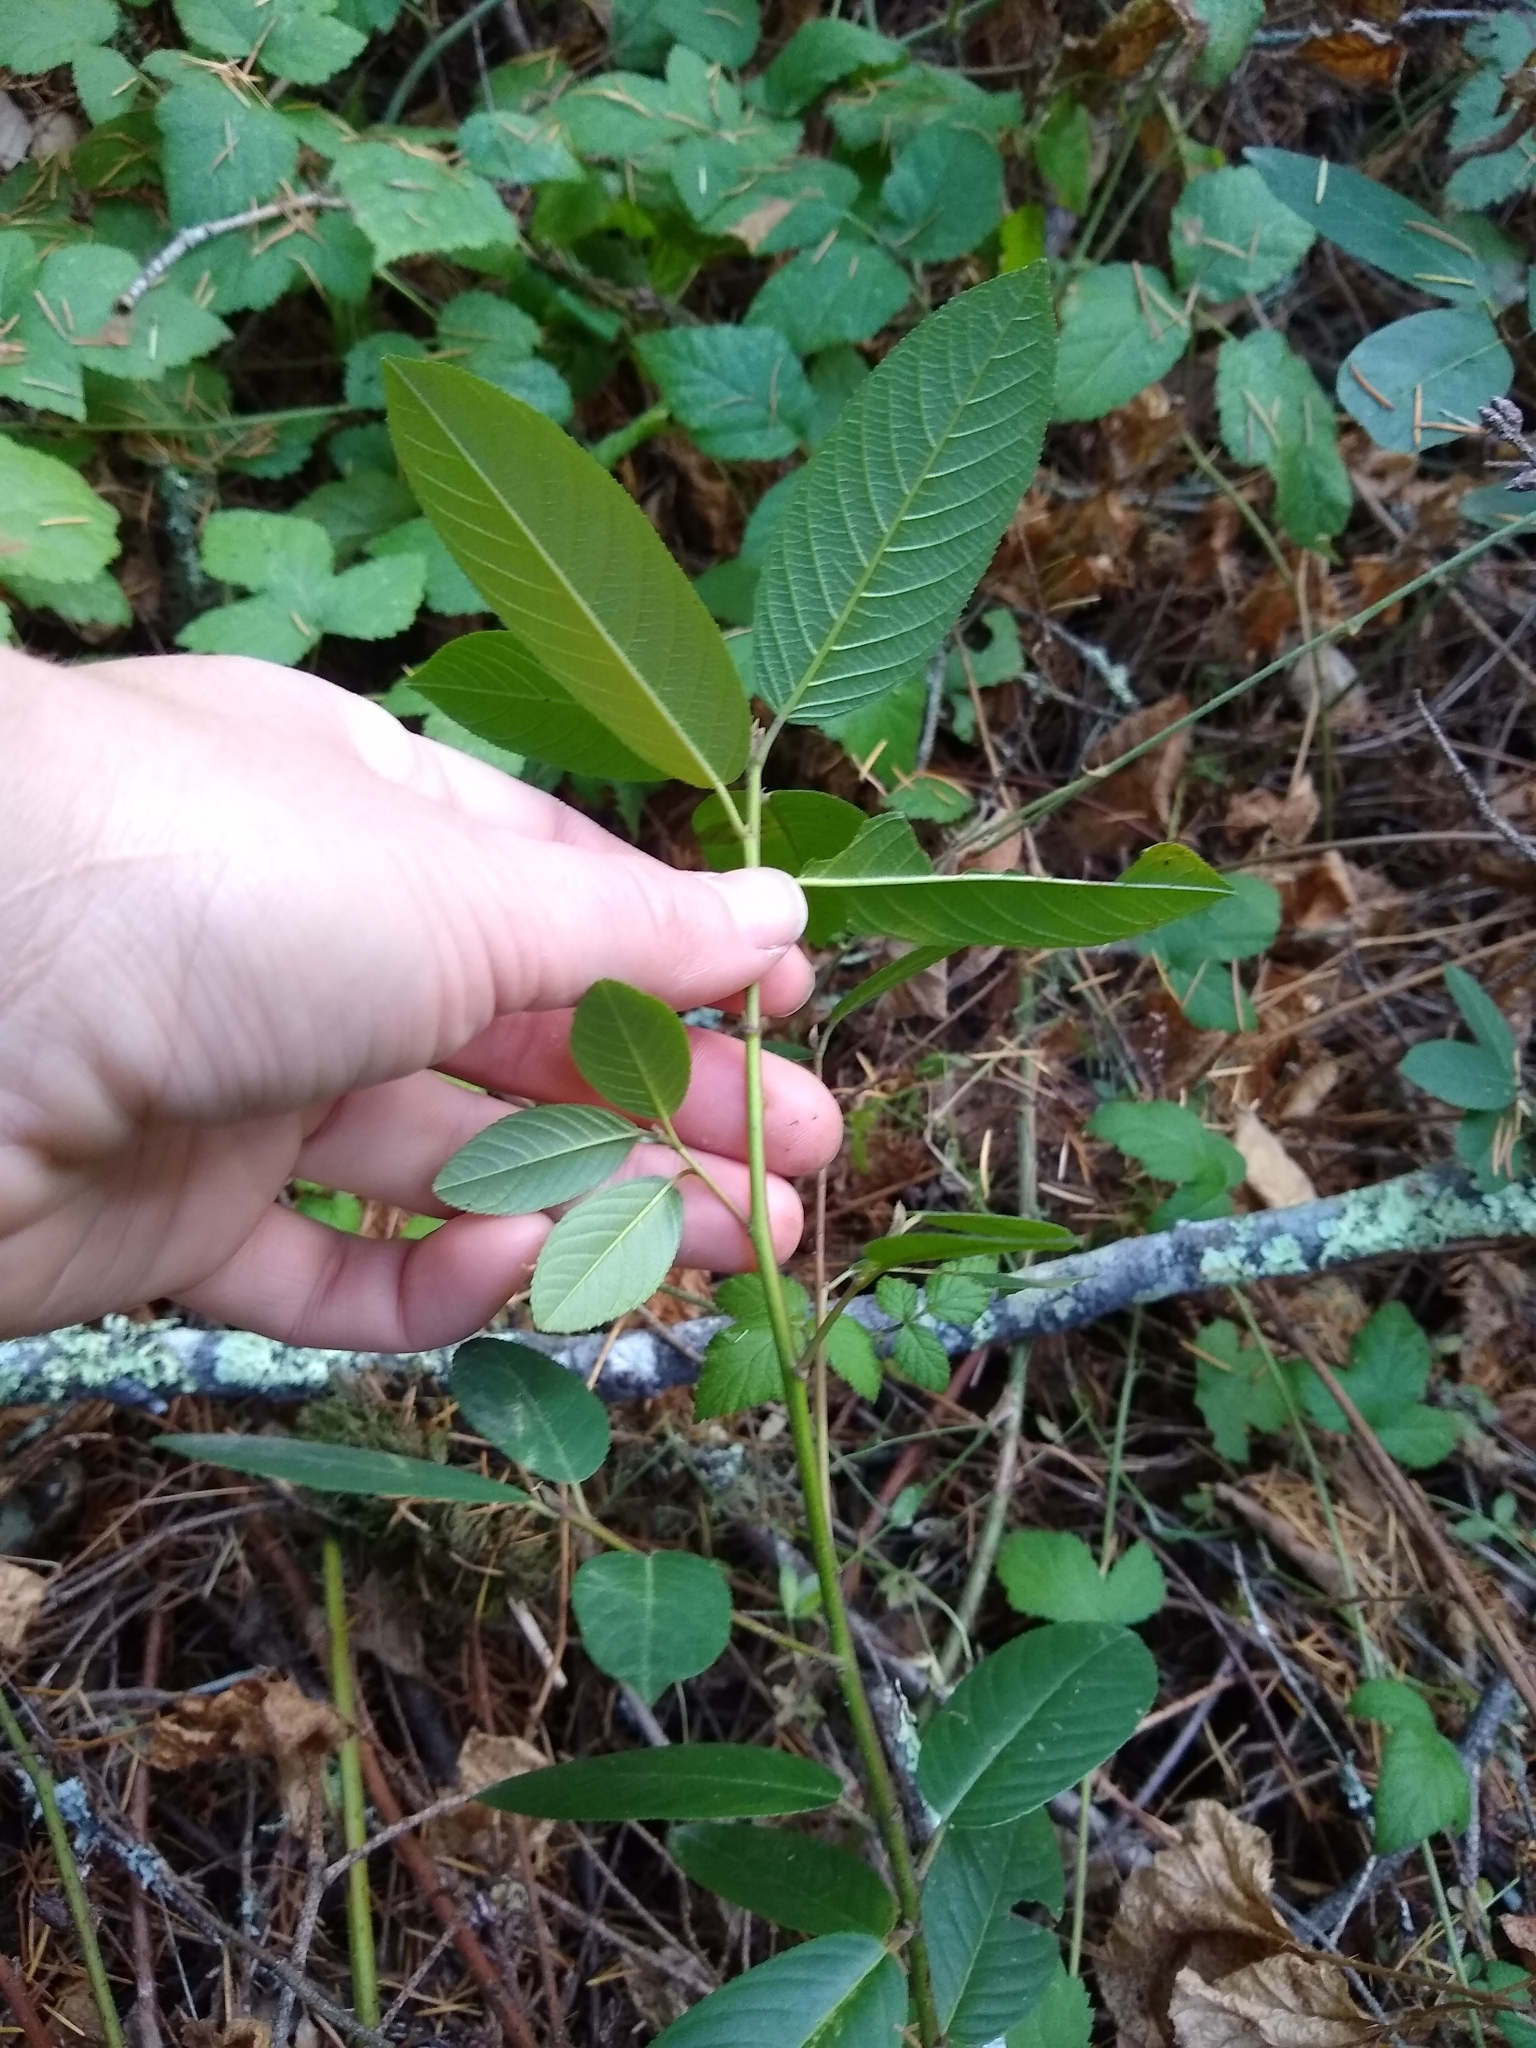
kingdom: Plantae
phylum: Tracheophyta
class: Magnoliopsida
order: Rosales
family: Rhamnaceae
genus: Frangula
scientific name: Frangula californica
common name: California buckthorn
